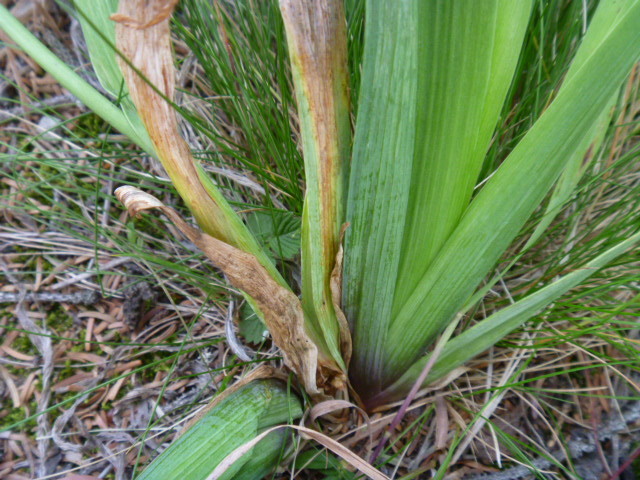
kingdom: Plantae
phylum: Tracheophyta
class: Liliopsida
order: Asparagales
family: Iridaceae
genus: Iris
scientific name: Iris setosa
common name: Arctic blue flag
